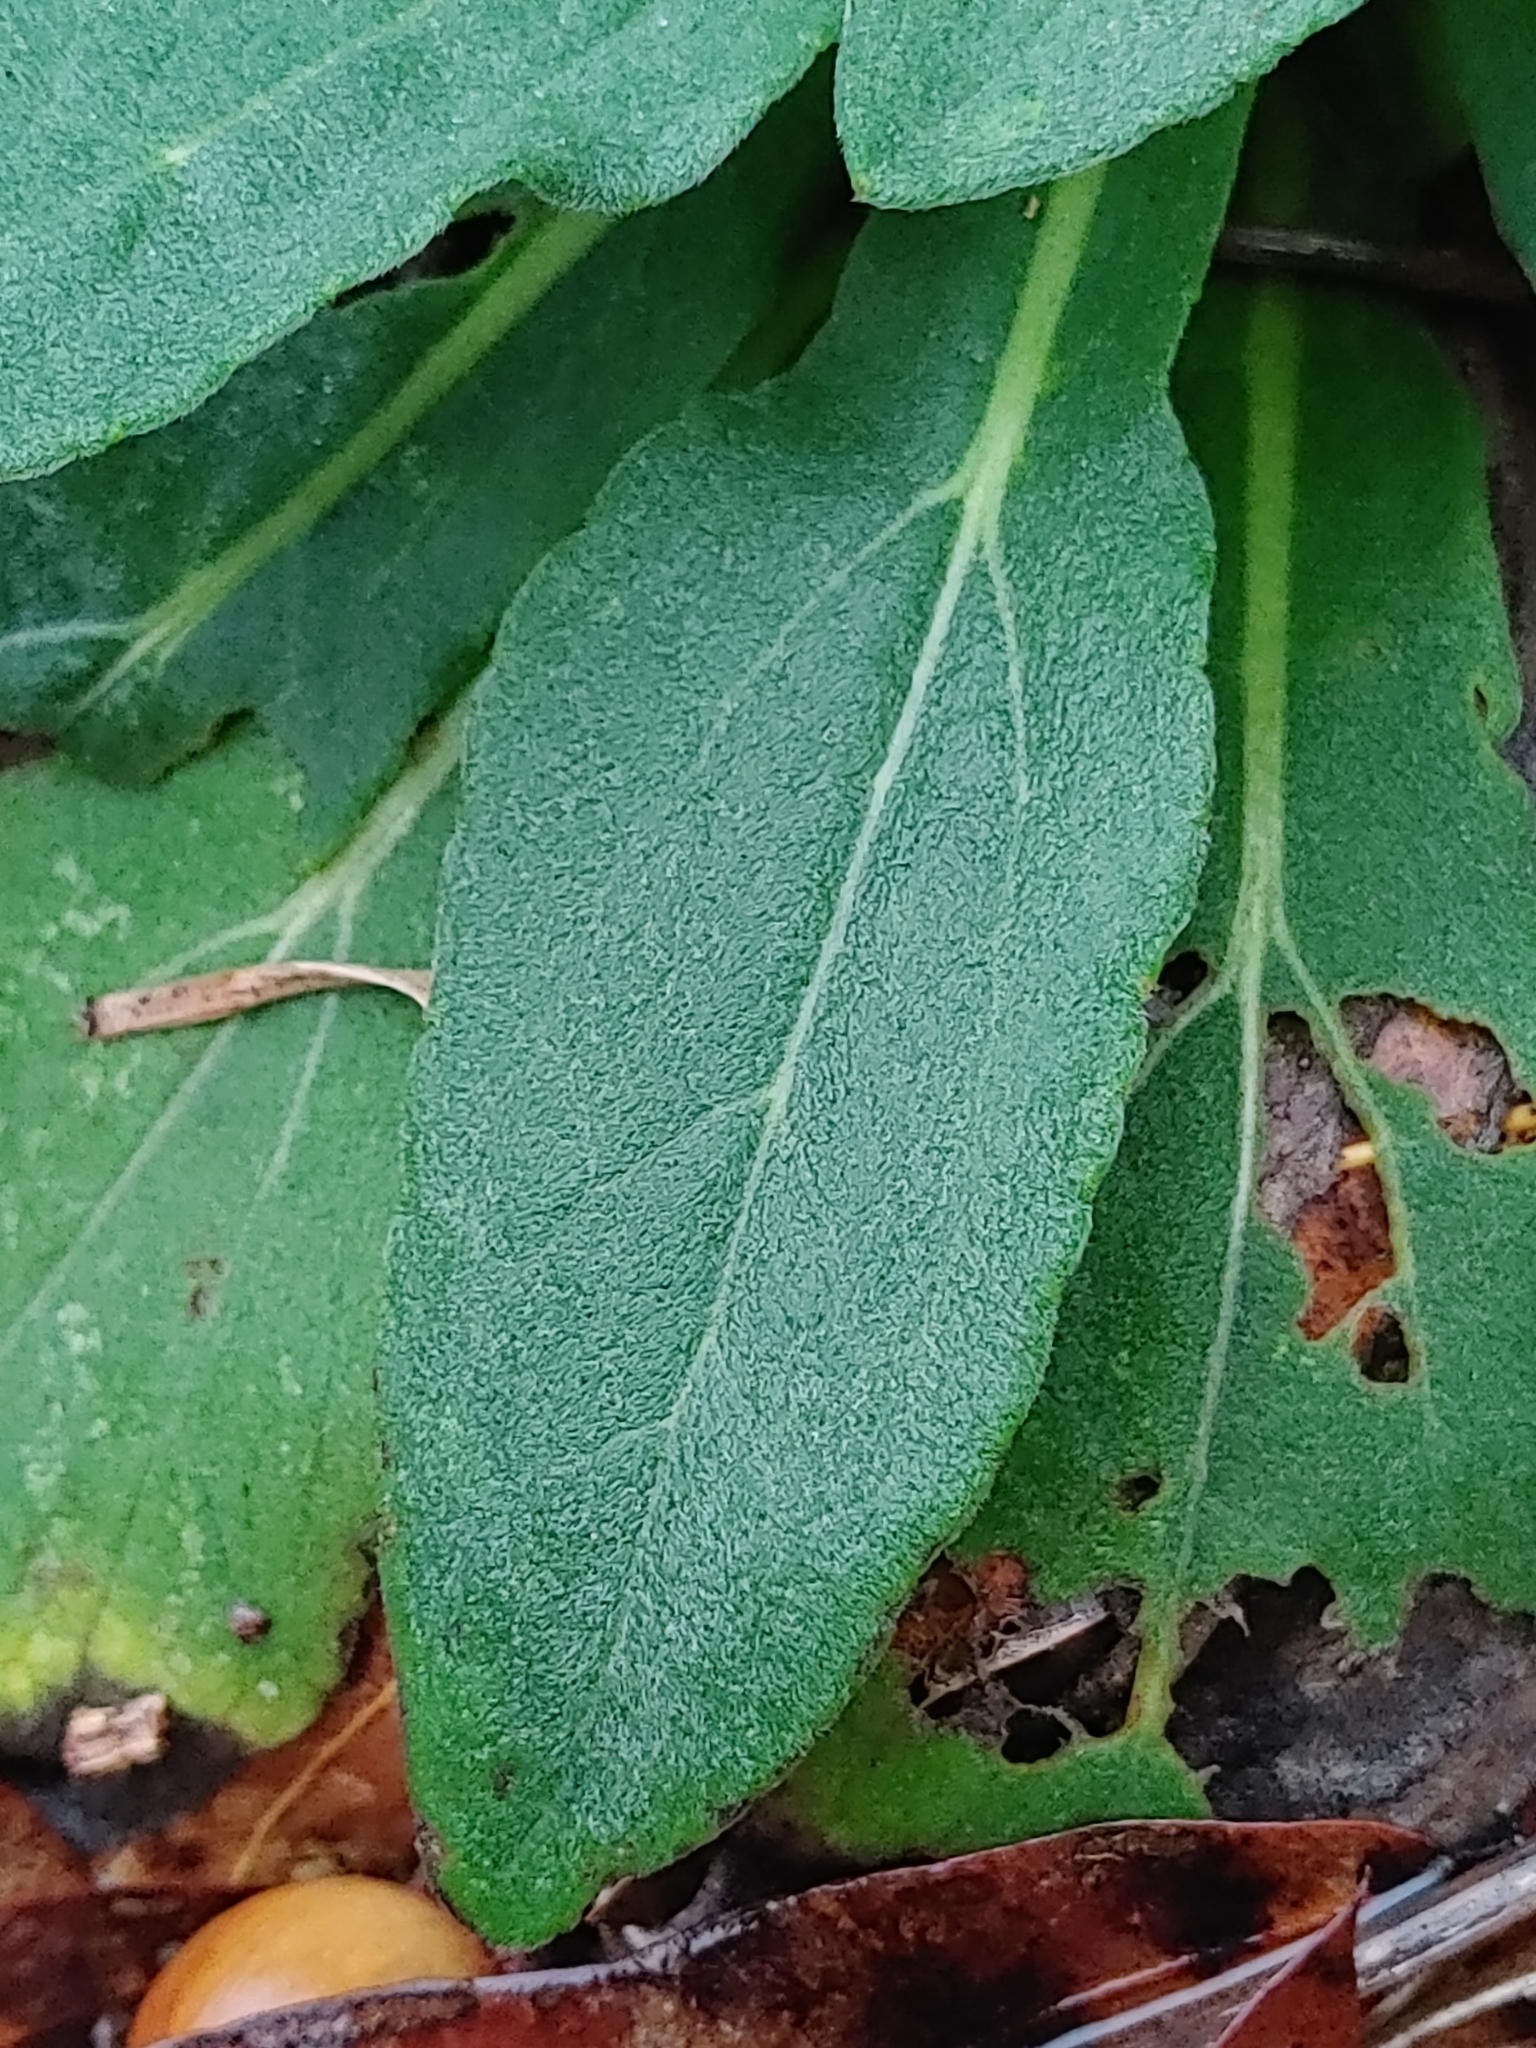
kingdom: Plantae
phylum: Tracheophyta
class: Magnoliopsida
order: Asterales
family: Asteraceae
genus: Rudbeckia
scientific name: Rudbeckia mollis
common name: Soft-hair coneflower
